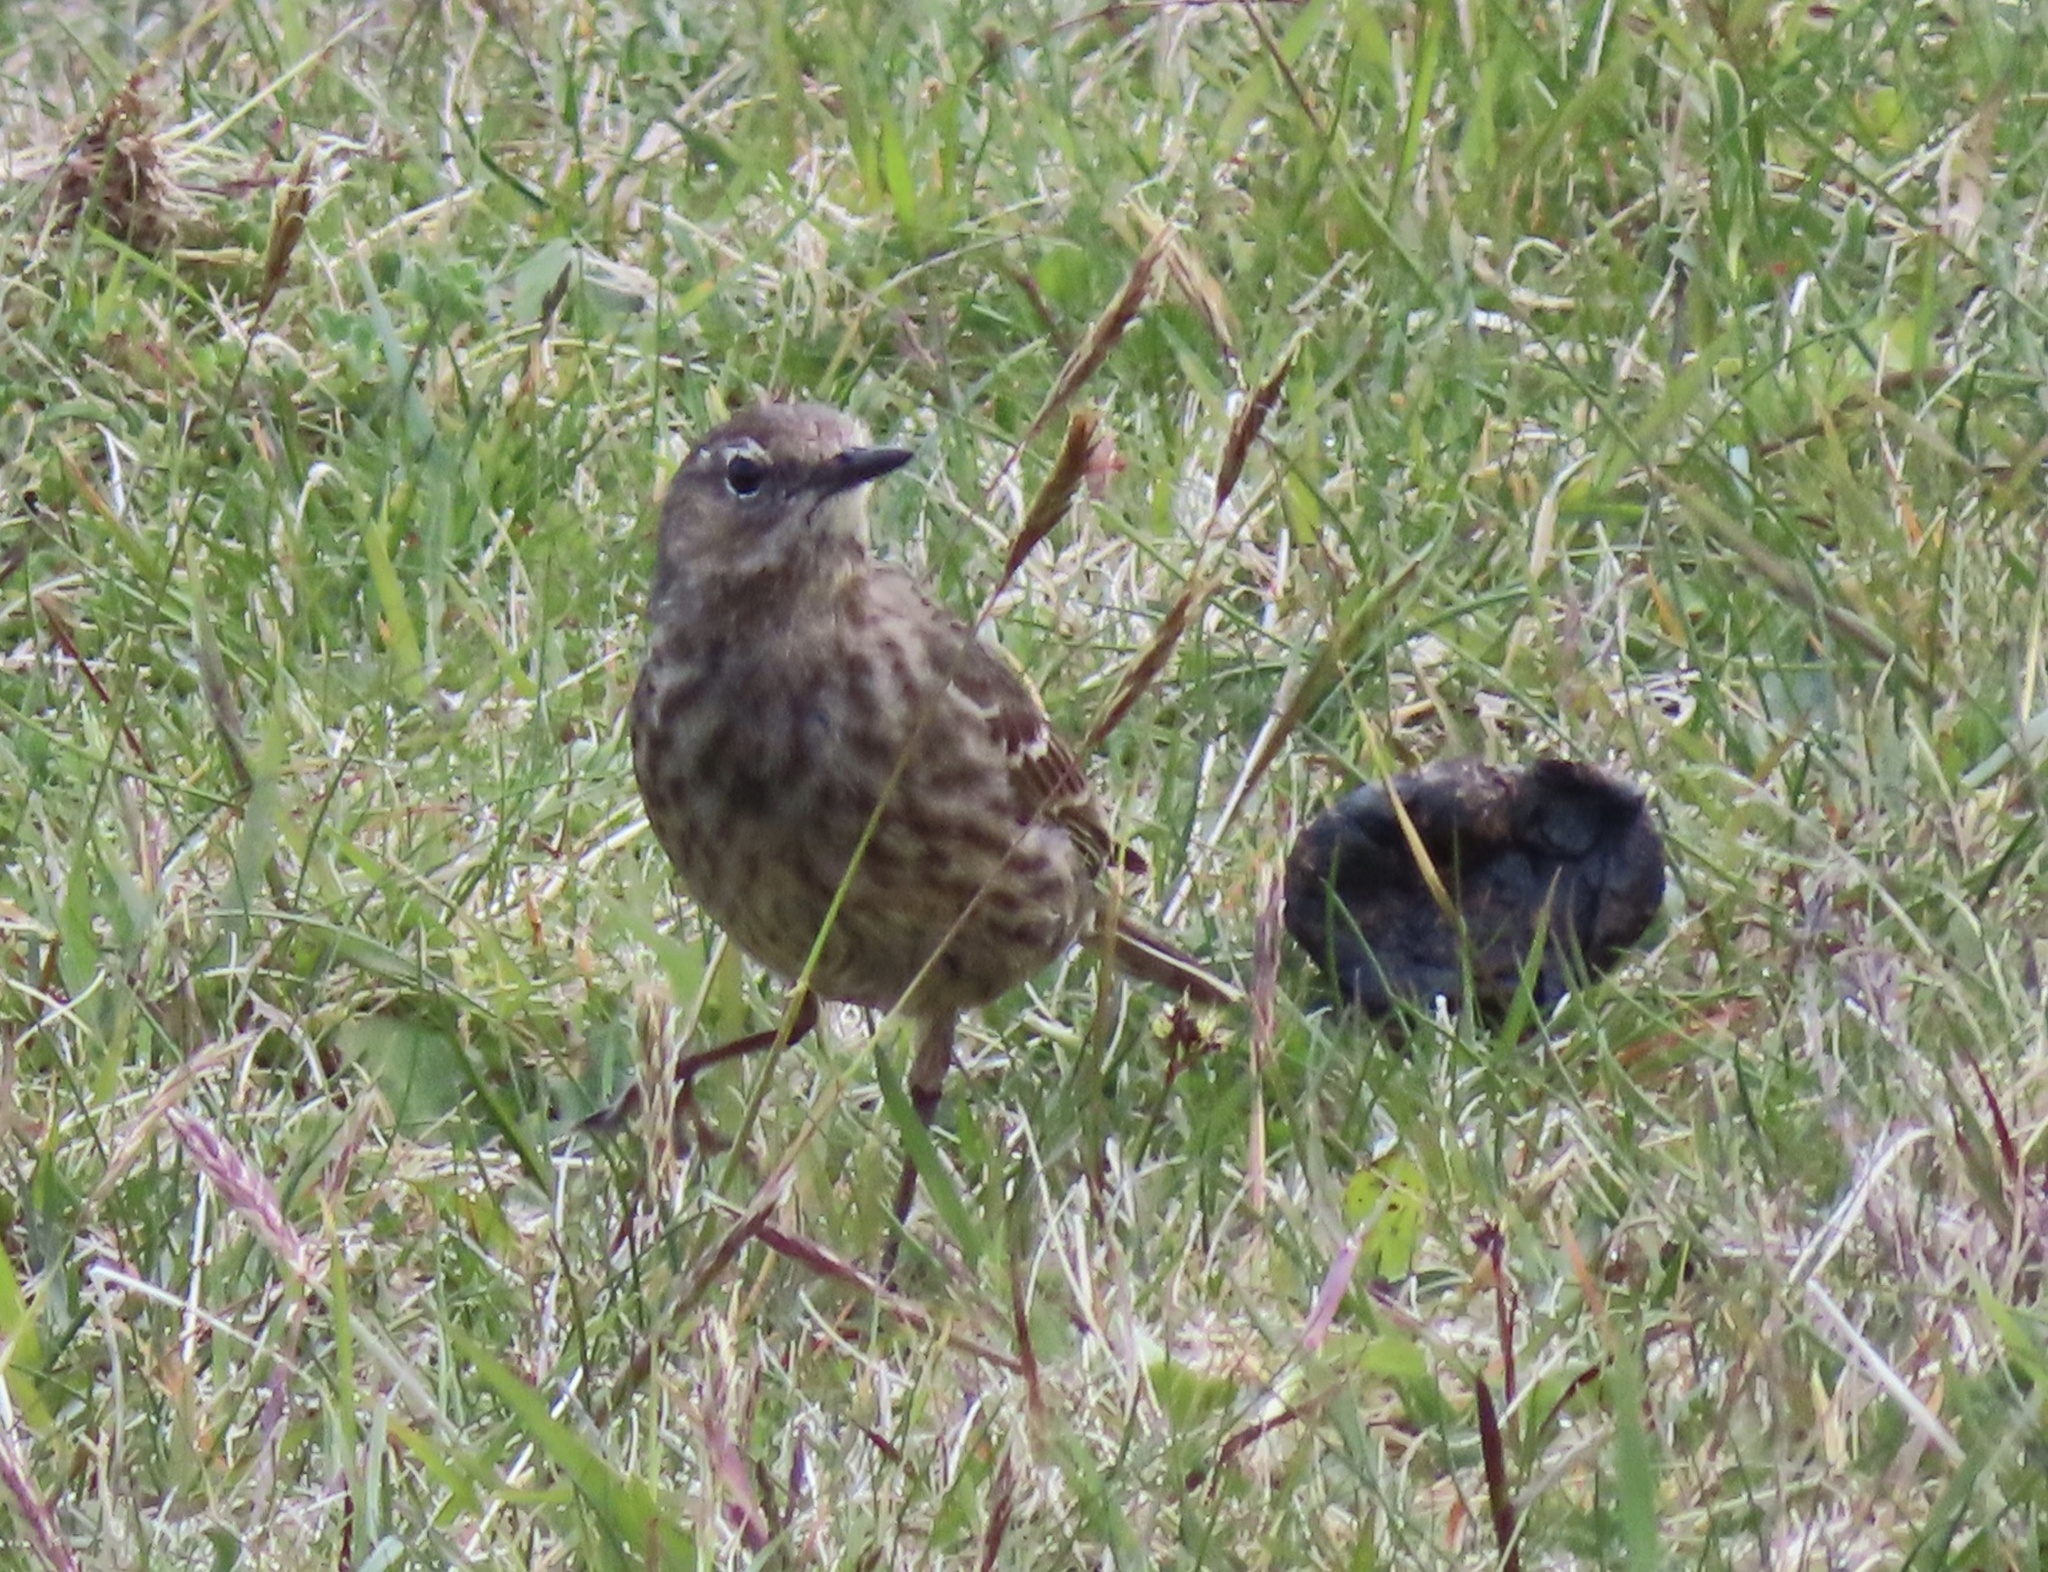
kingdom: Animalia
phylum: Chordata
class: Aves
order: Passeriformes
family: Motacillidae
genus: Anthus
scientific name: Anthus petrosus
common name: Eurasian rock pipit
